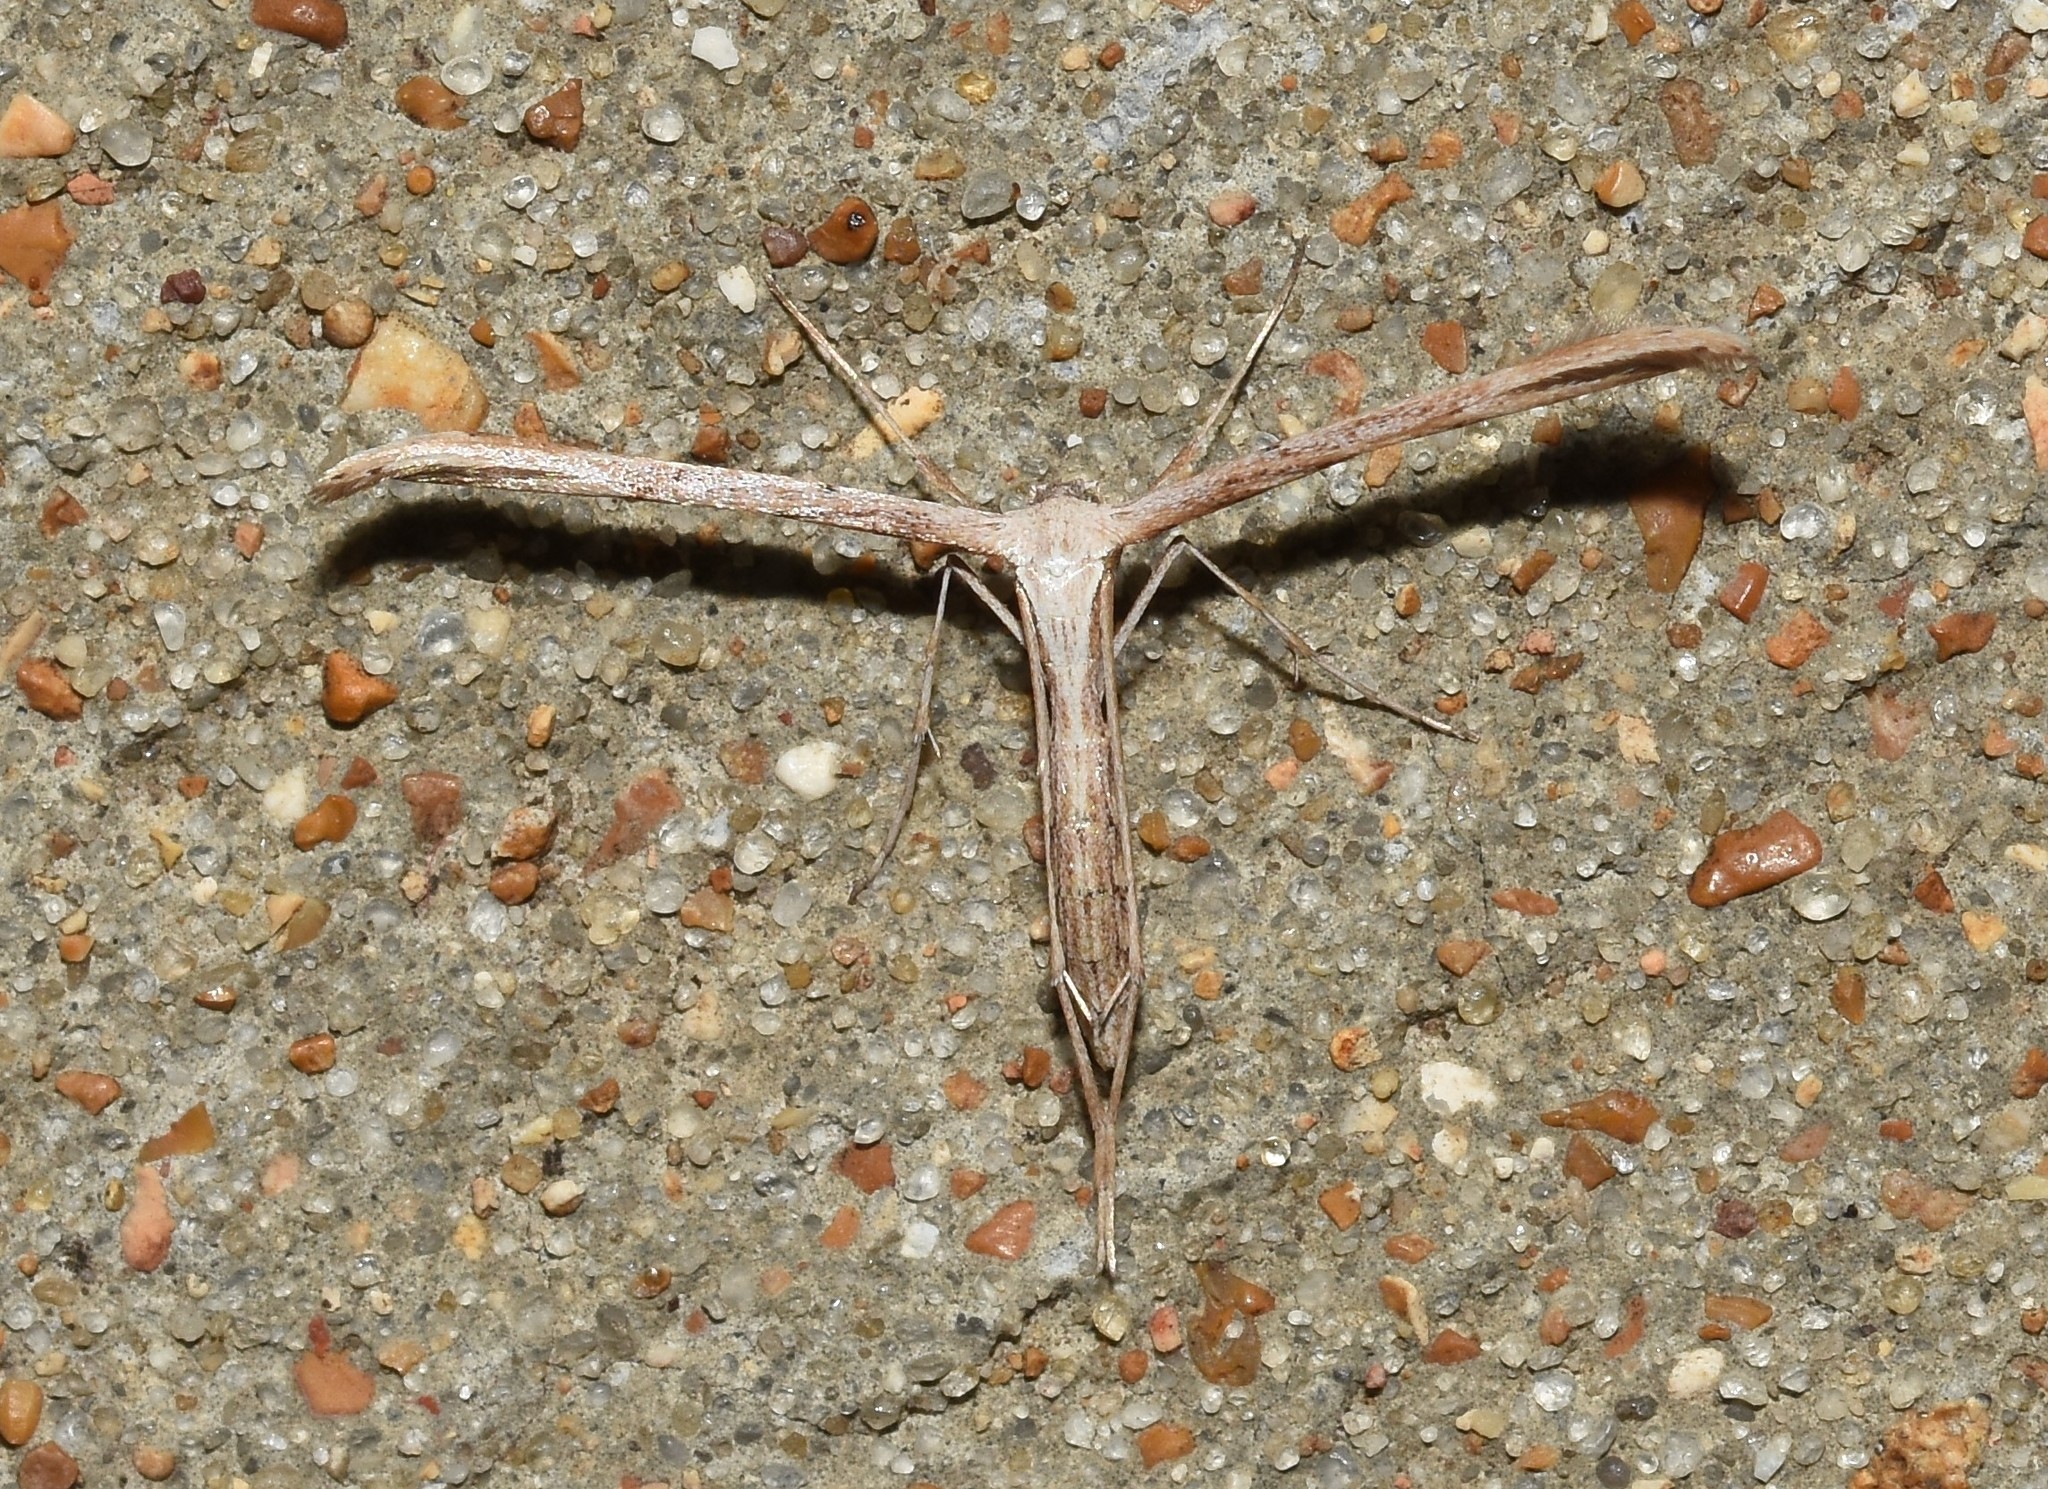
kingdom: Animalia
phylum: Arthropoda
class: Insecta
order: Lepidoptera
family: Pterophoridae
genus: Emmelina
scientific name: Emmelina monodactyla
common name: Common plume
